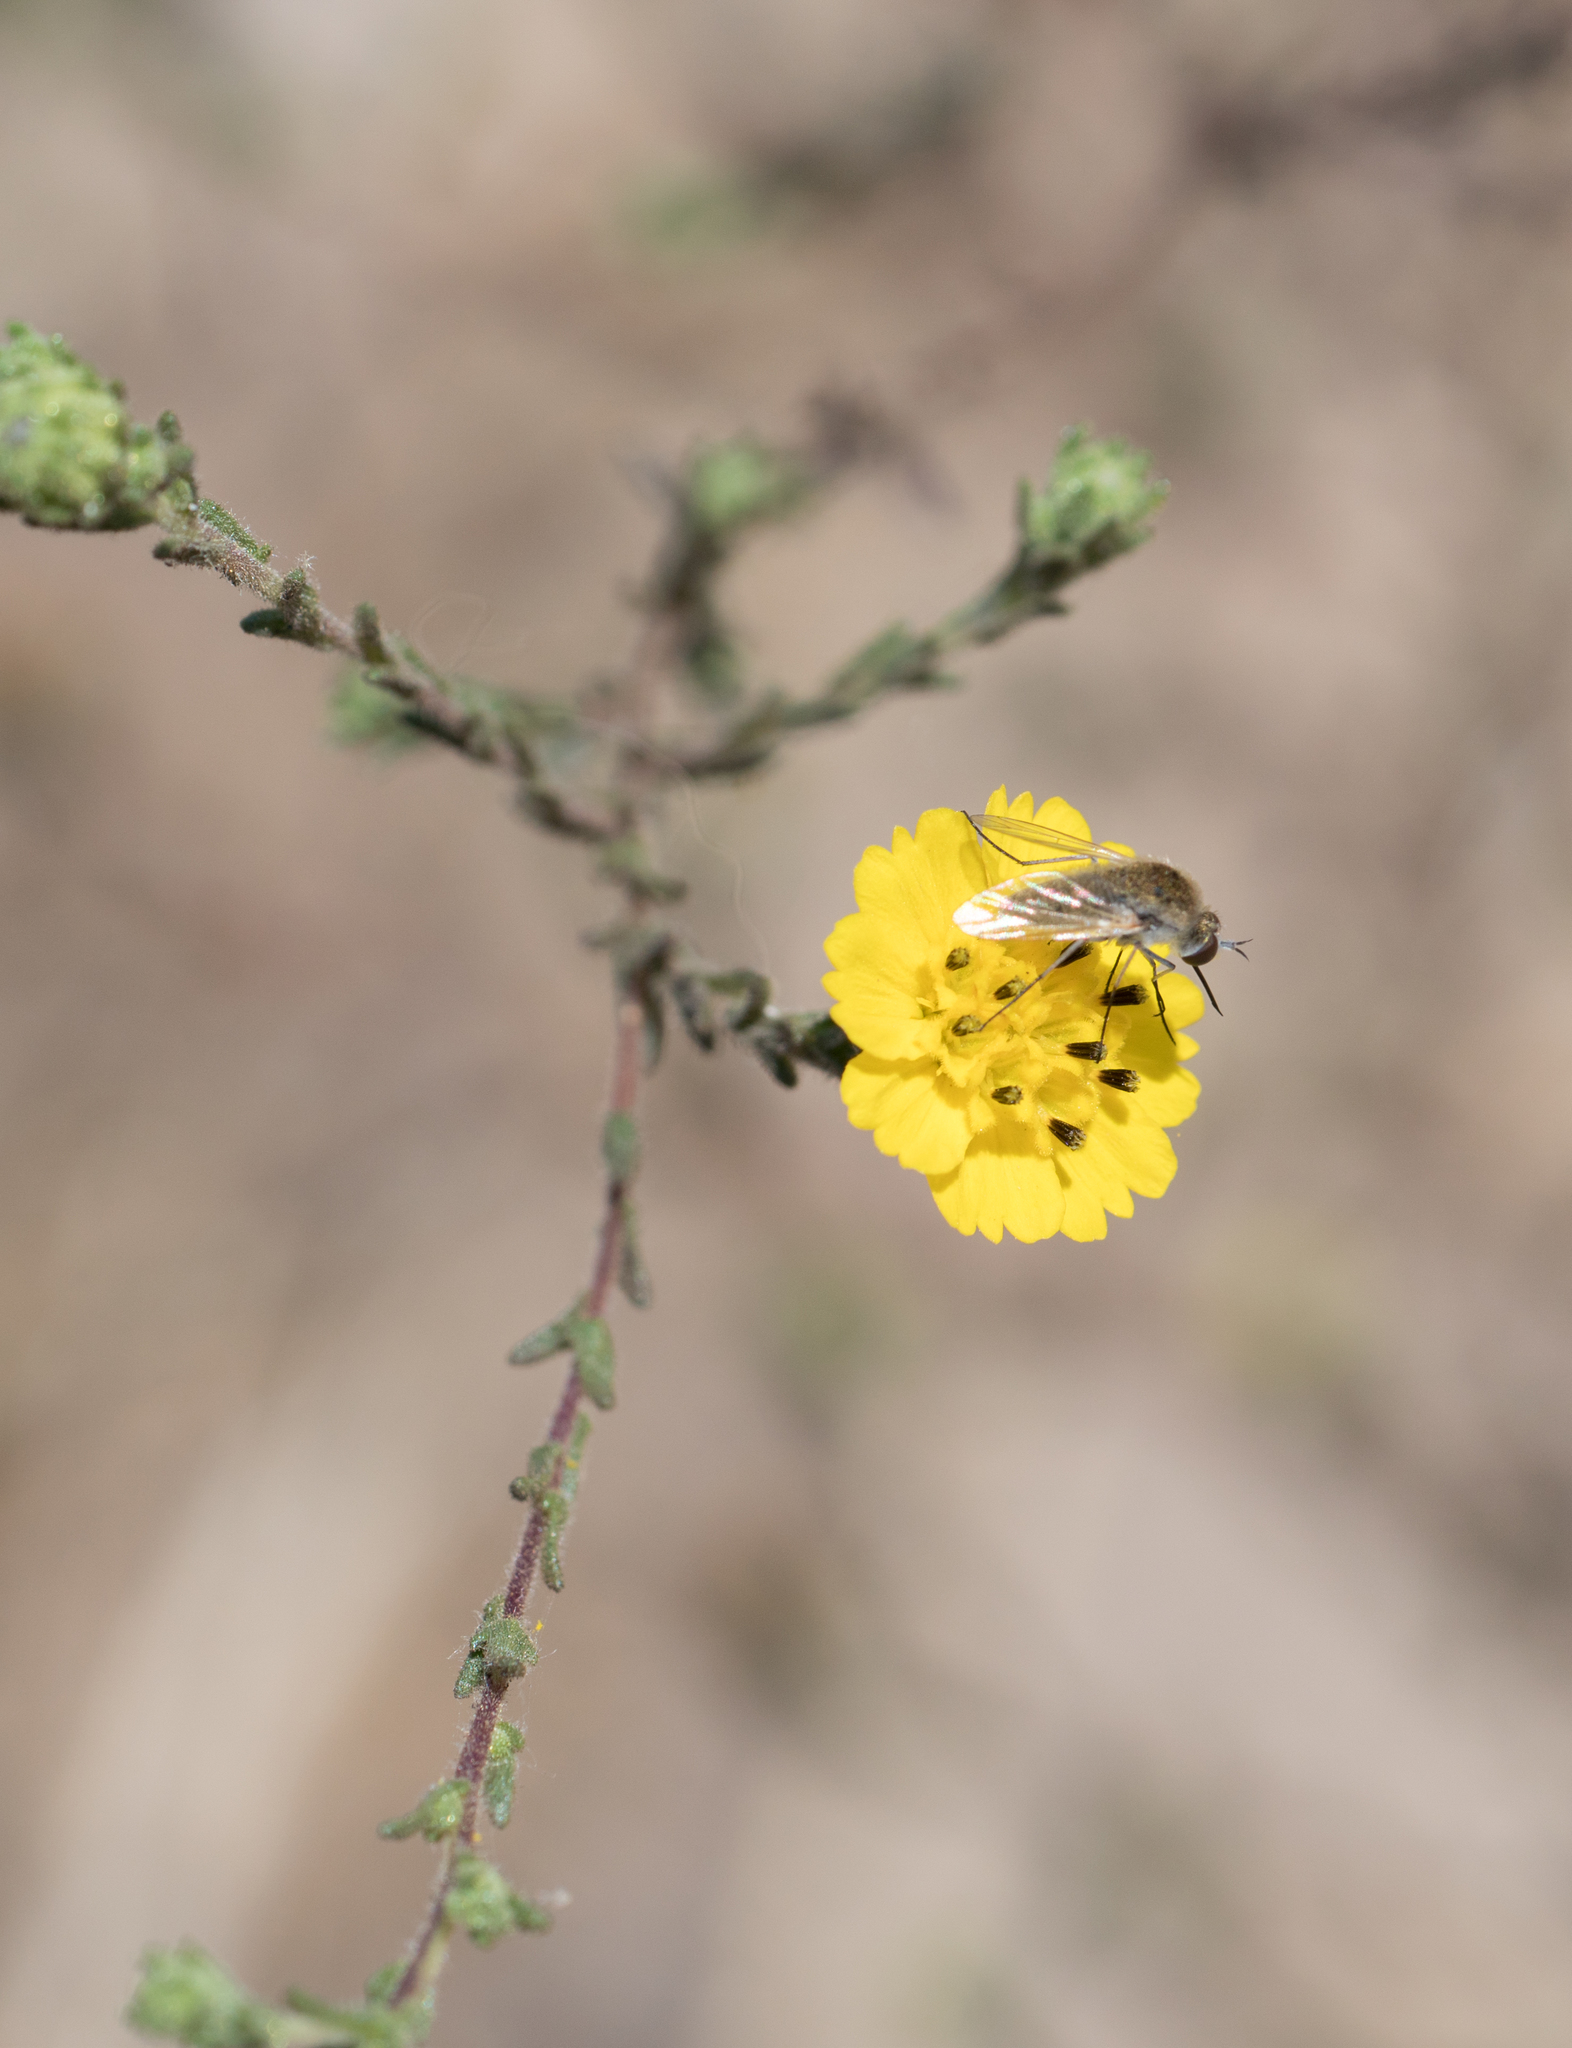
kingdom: Plantae
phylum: Tracheophyta
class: Magnoliopsida
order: Asterales
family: Asteraceae
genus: Deinandra
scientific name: Deinandra paniculata
